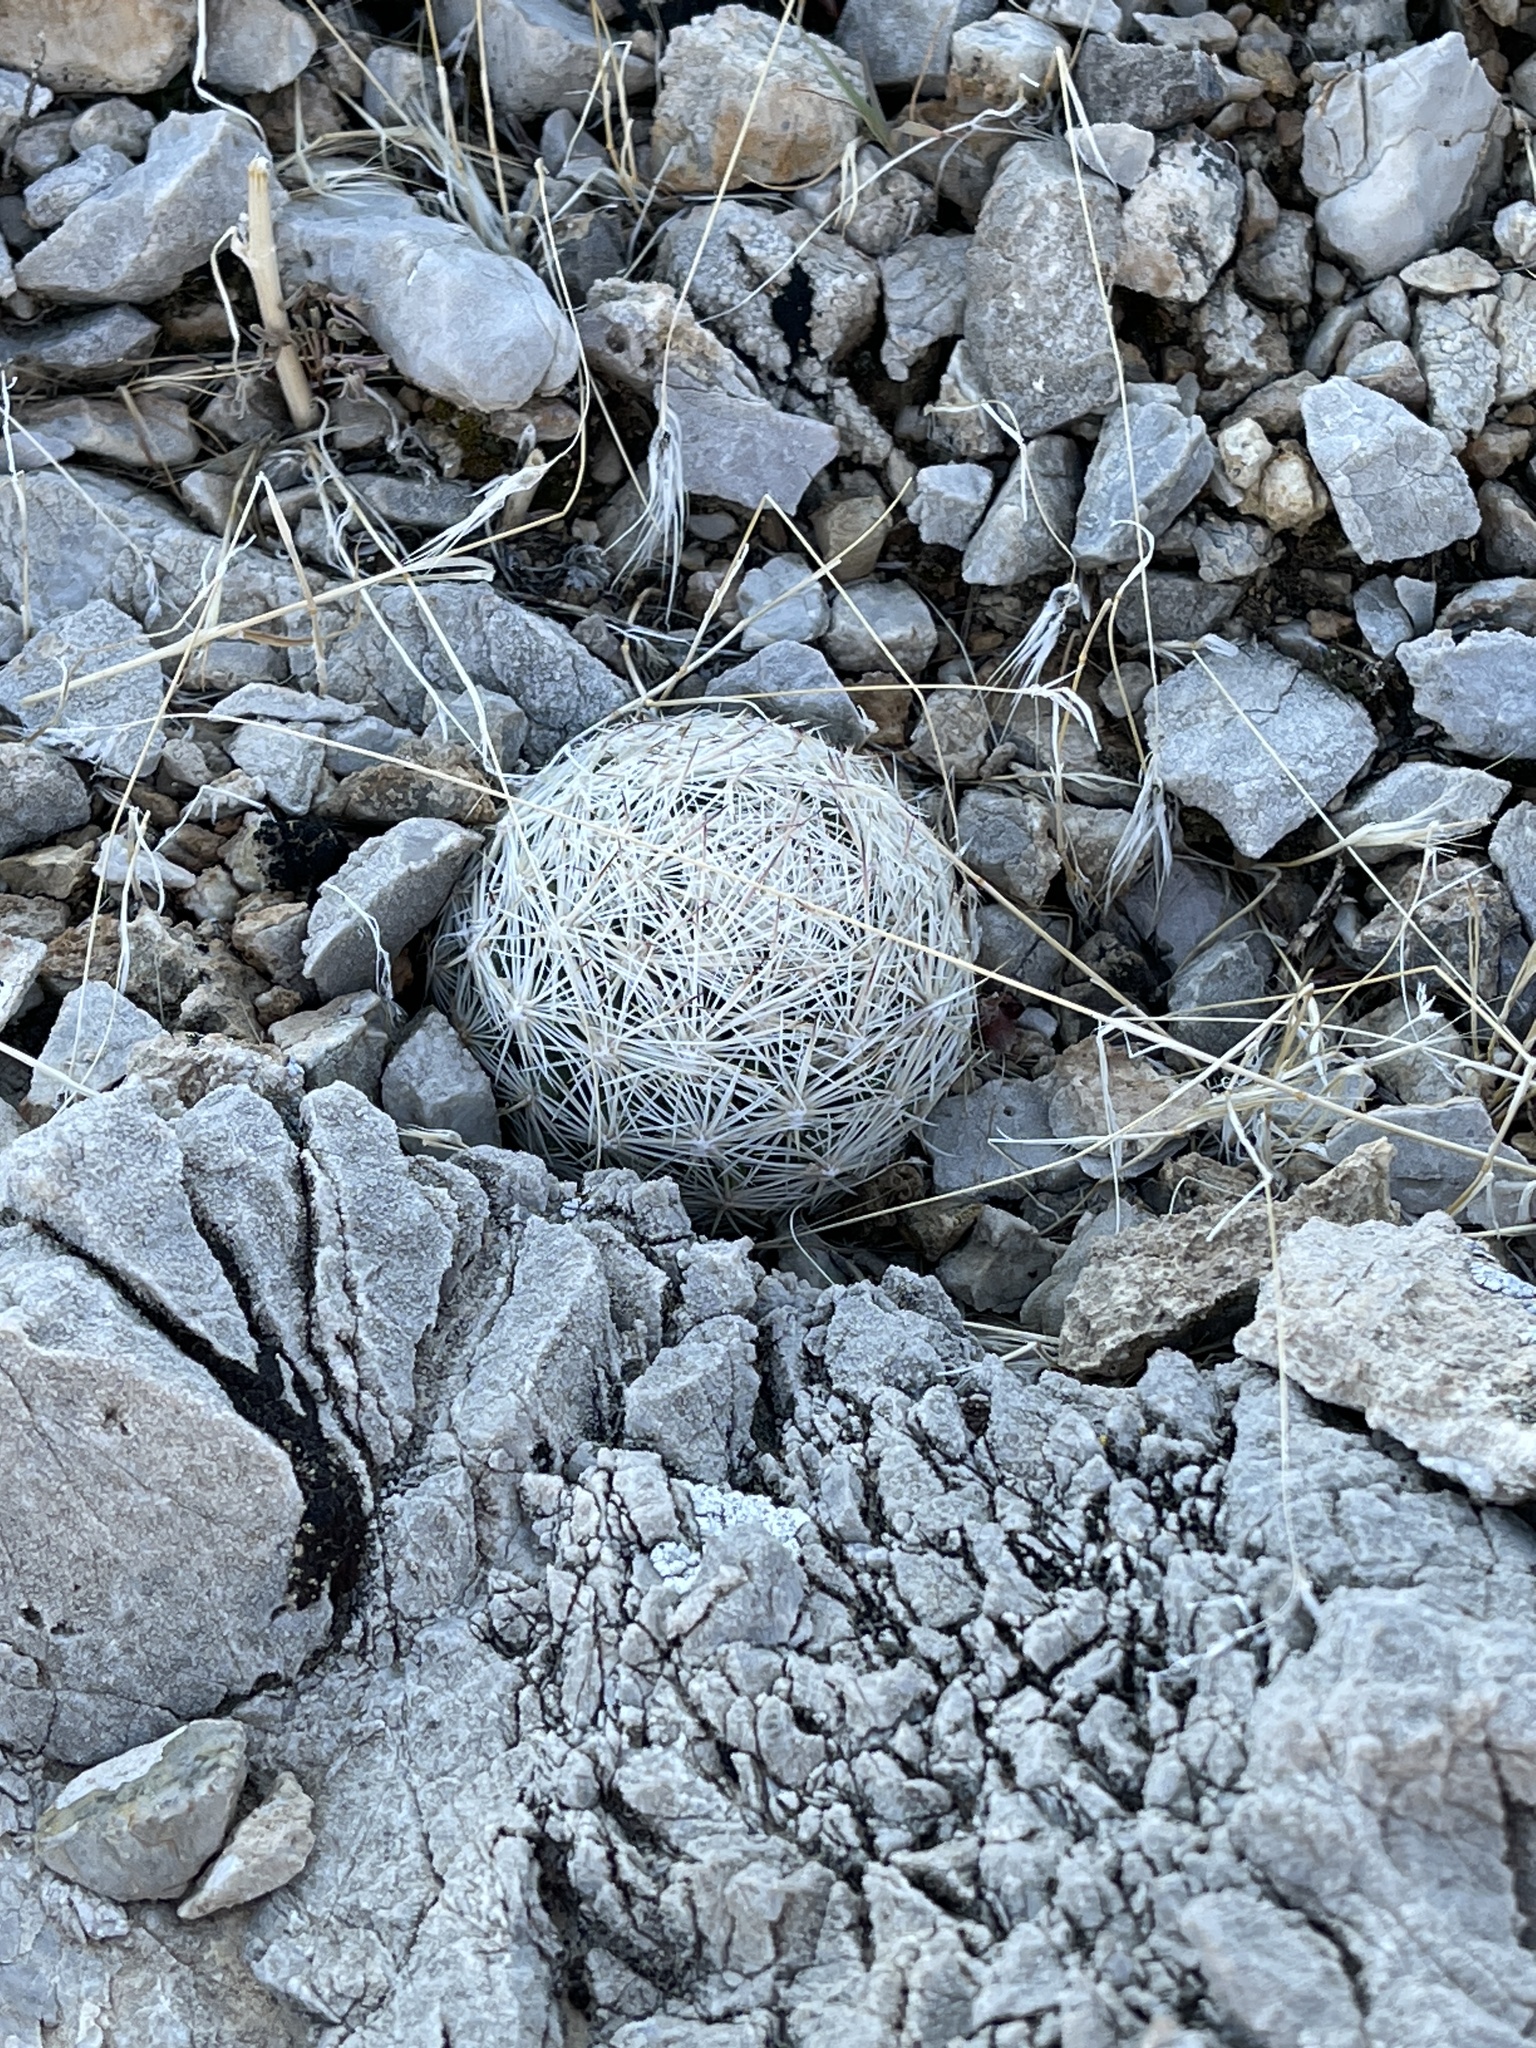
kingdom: Plantae
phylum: Tracheophyta
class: Magnoliopsida
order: Caryophyllales
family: Cactaceae
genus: Pelecyphora
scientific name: Pelecyphora dasyacantha
